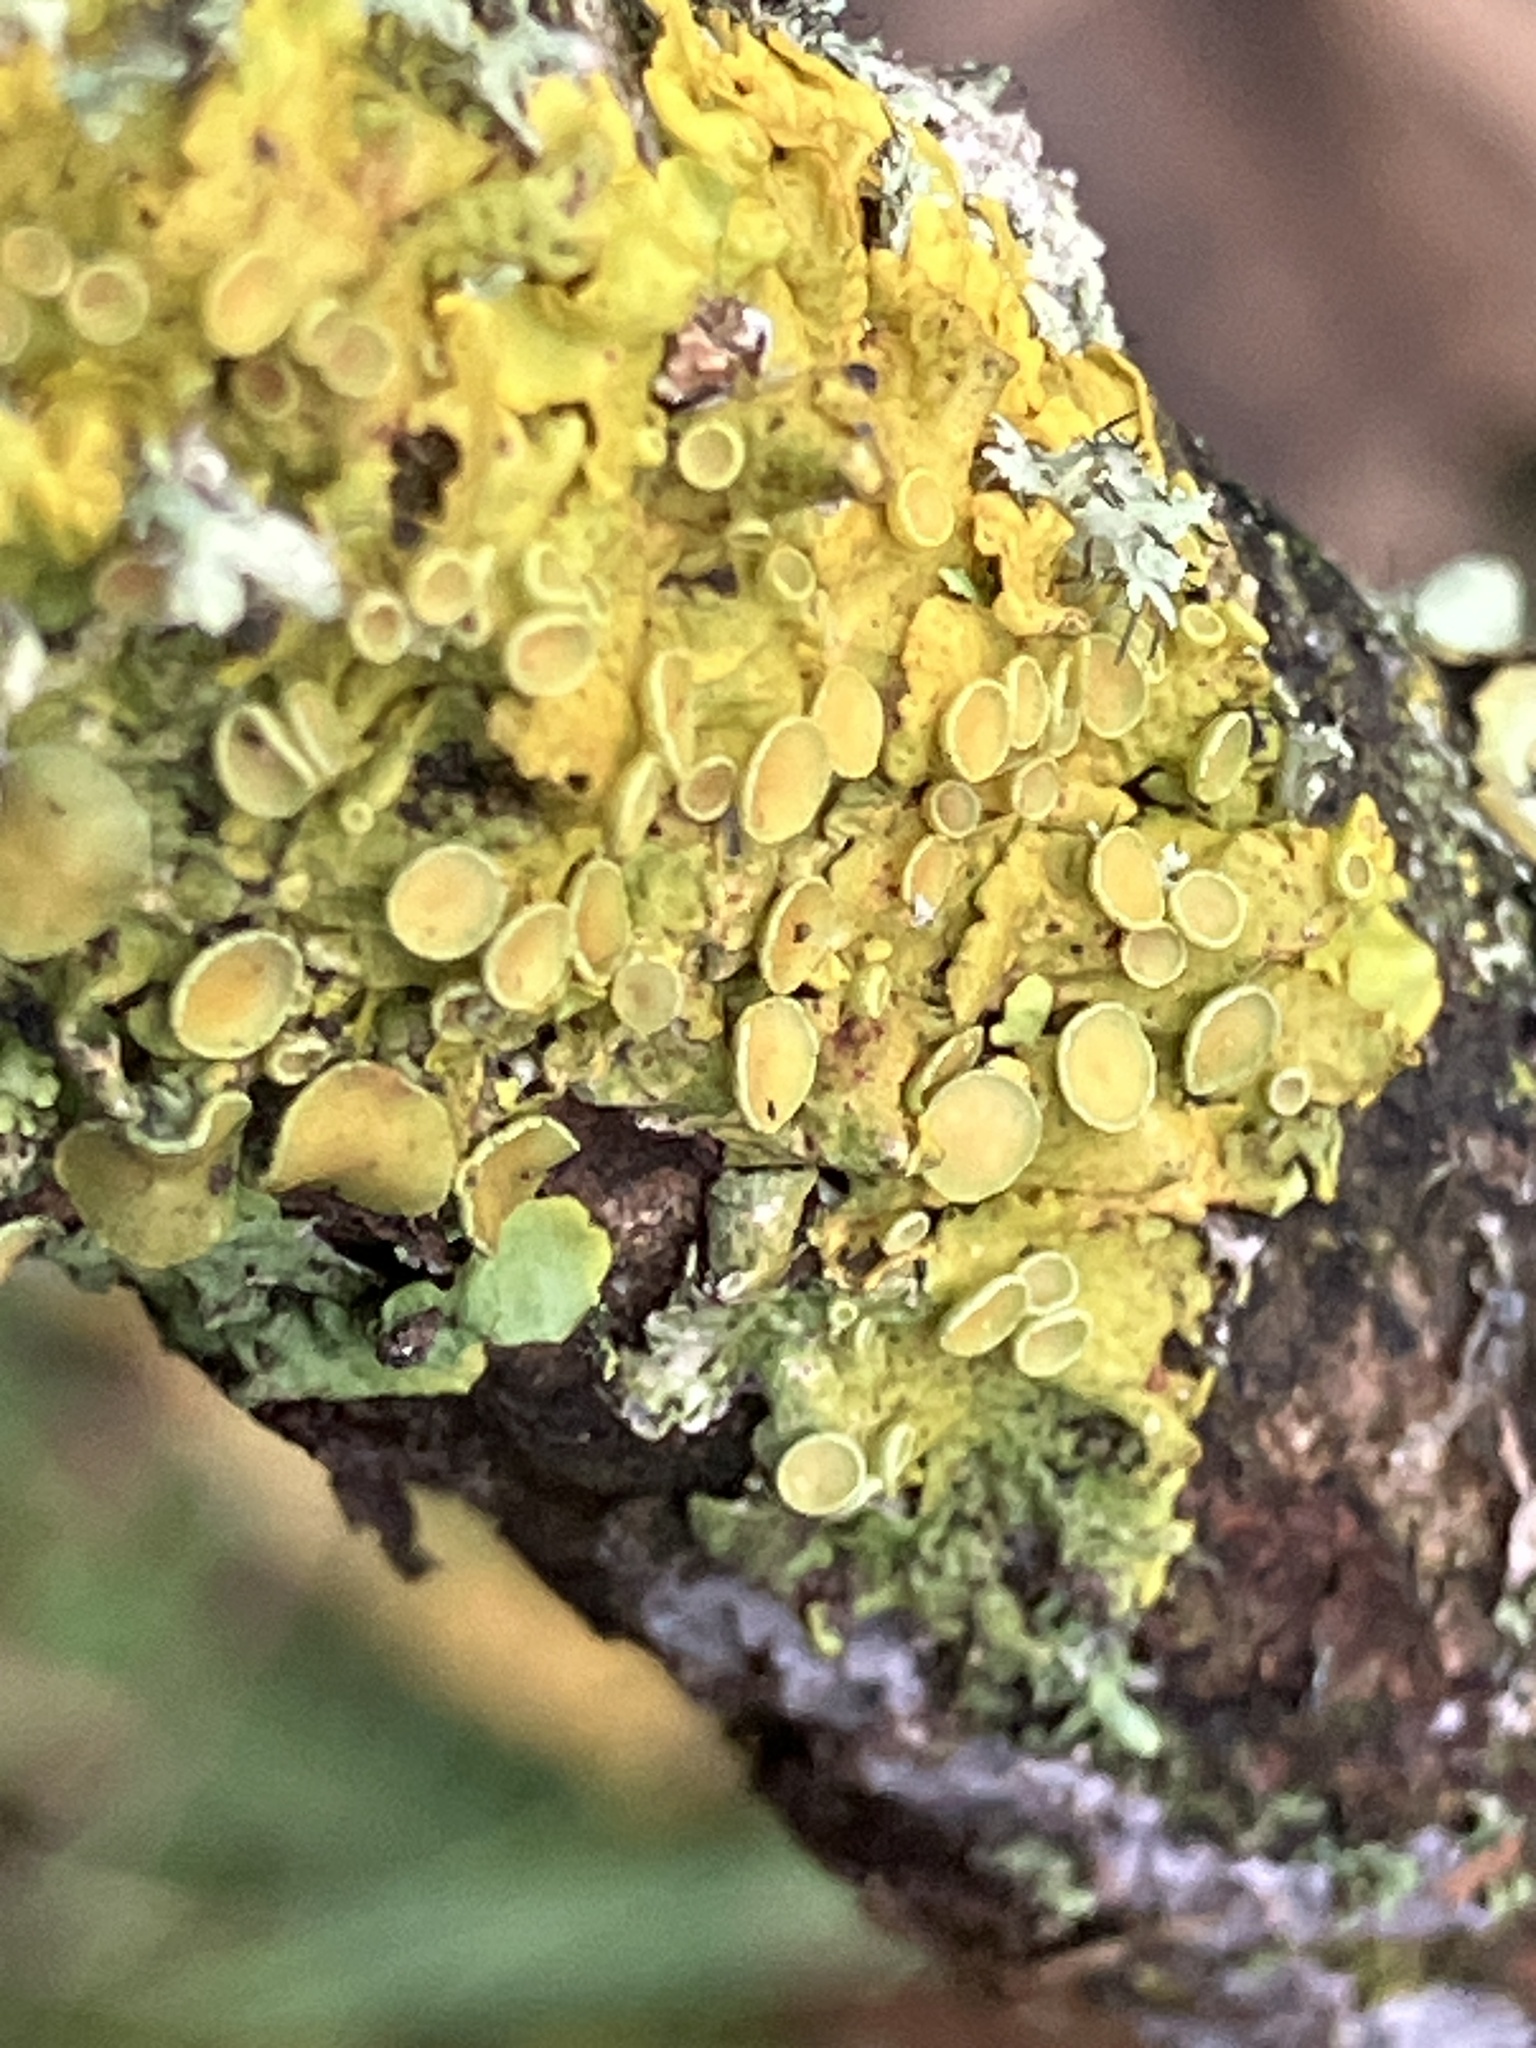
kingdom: Fungi
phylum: Ascomycota
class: Lecanoromycetes
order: Teloschistales
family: Teloschistaceae
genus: Xanthoria
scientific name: Xanthoria parietina
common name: Common orange lichen
